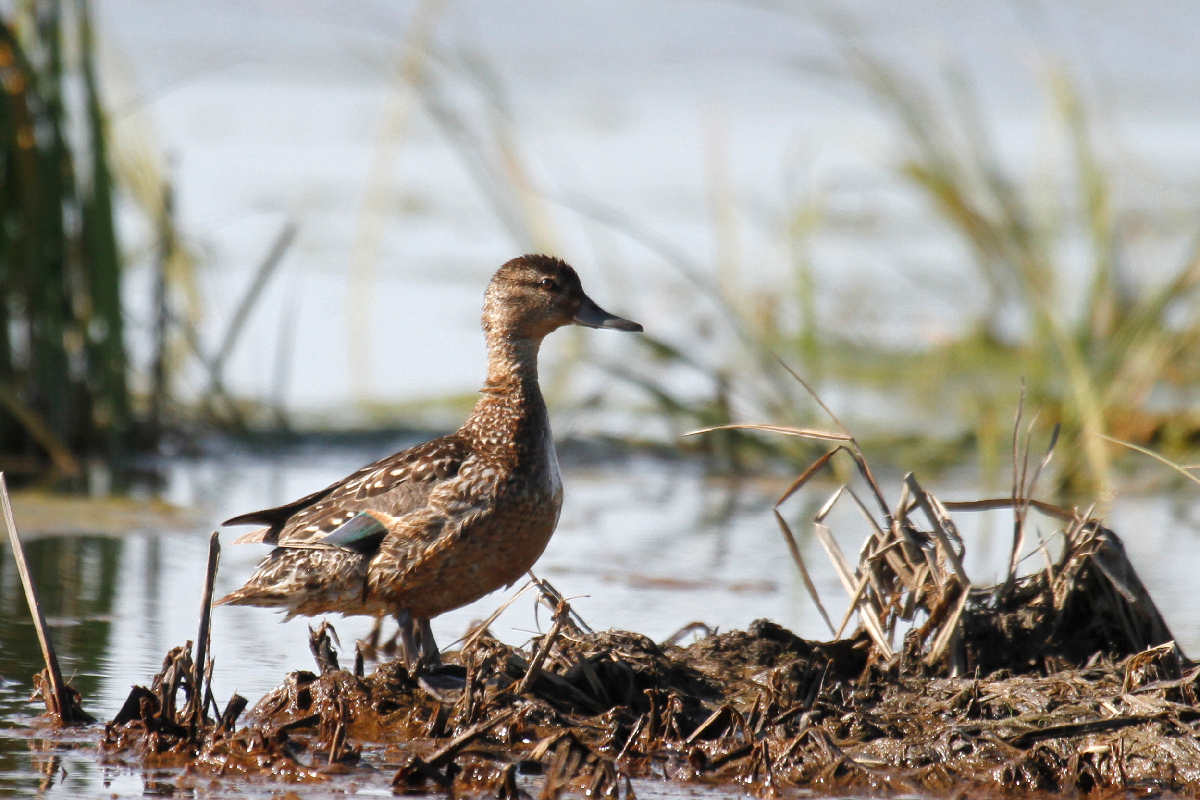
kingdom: Animalia
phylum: Chordata
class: Aves
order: Anseriformes
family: Anatidae
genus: Anas
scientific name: Anas crecca
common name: Eurasian teal
